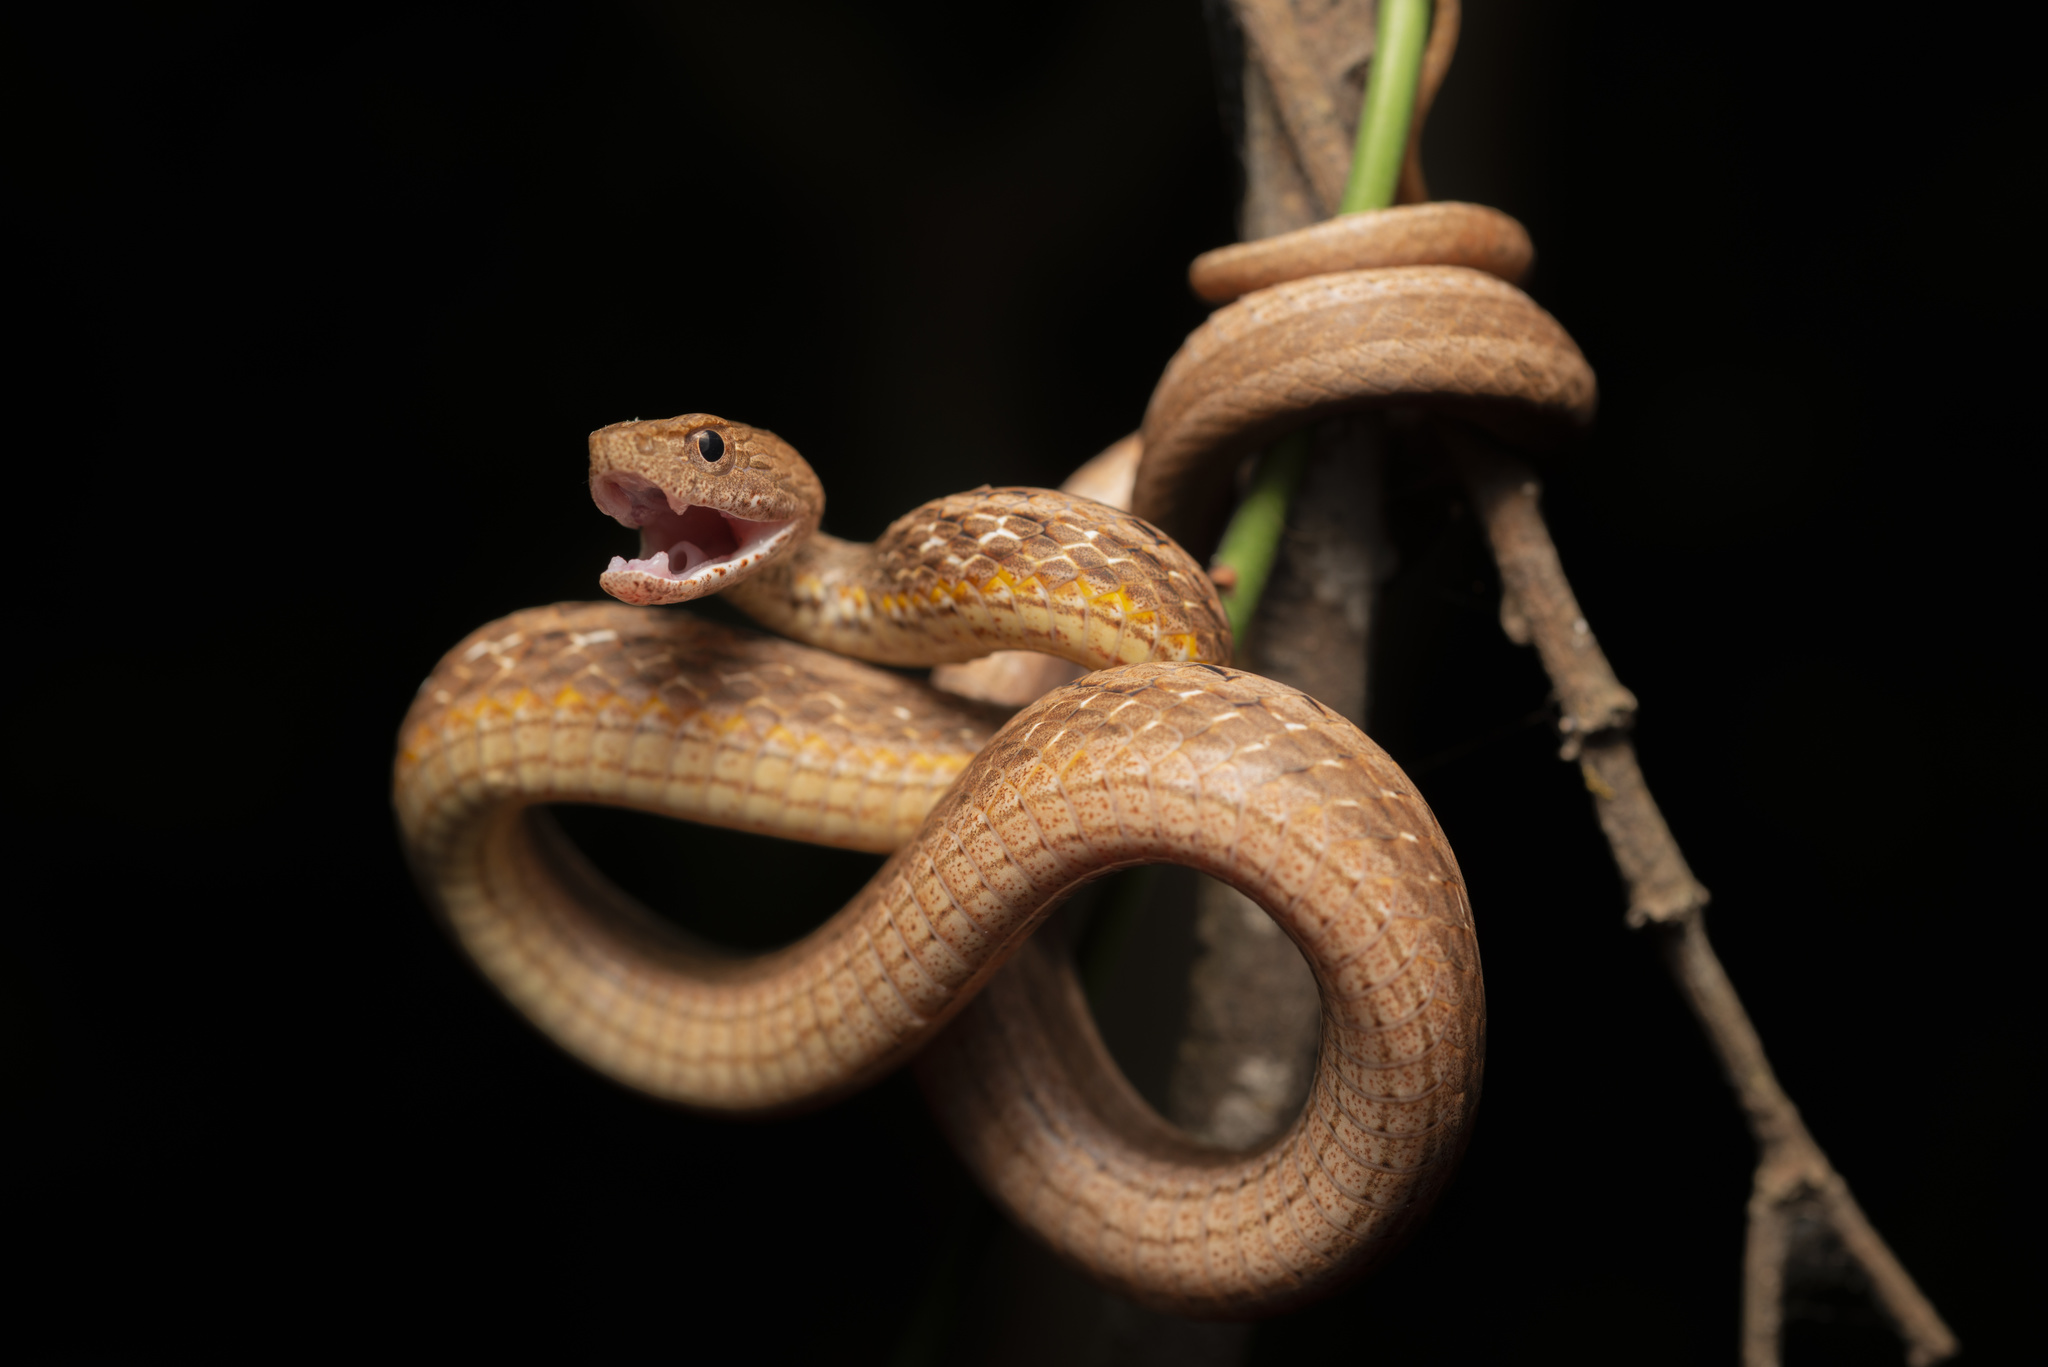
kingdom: Animalia
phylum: Chordata
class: Squamata
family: Pseudaspididae
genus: Psammodynastes
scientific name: Psammodynastes pulverulentus
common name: Common mock viper
